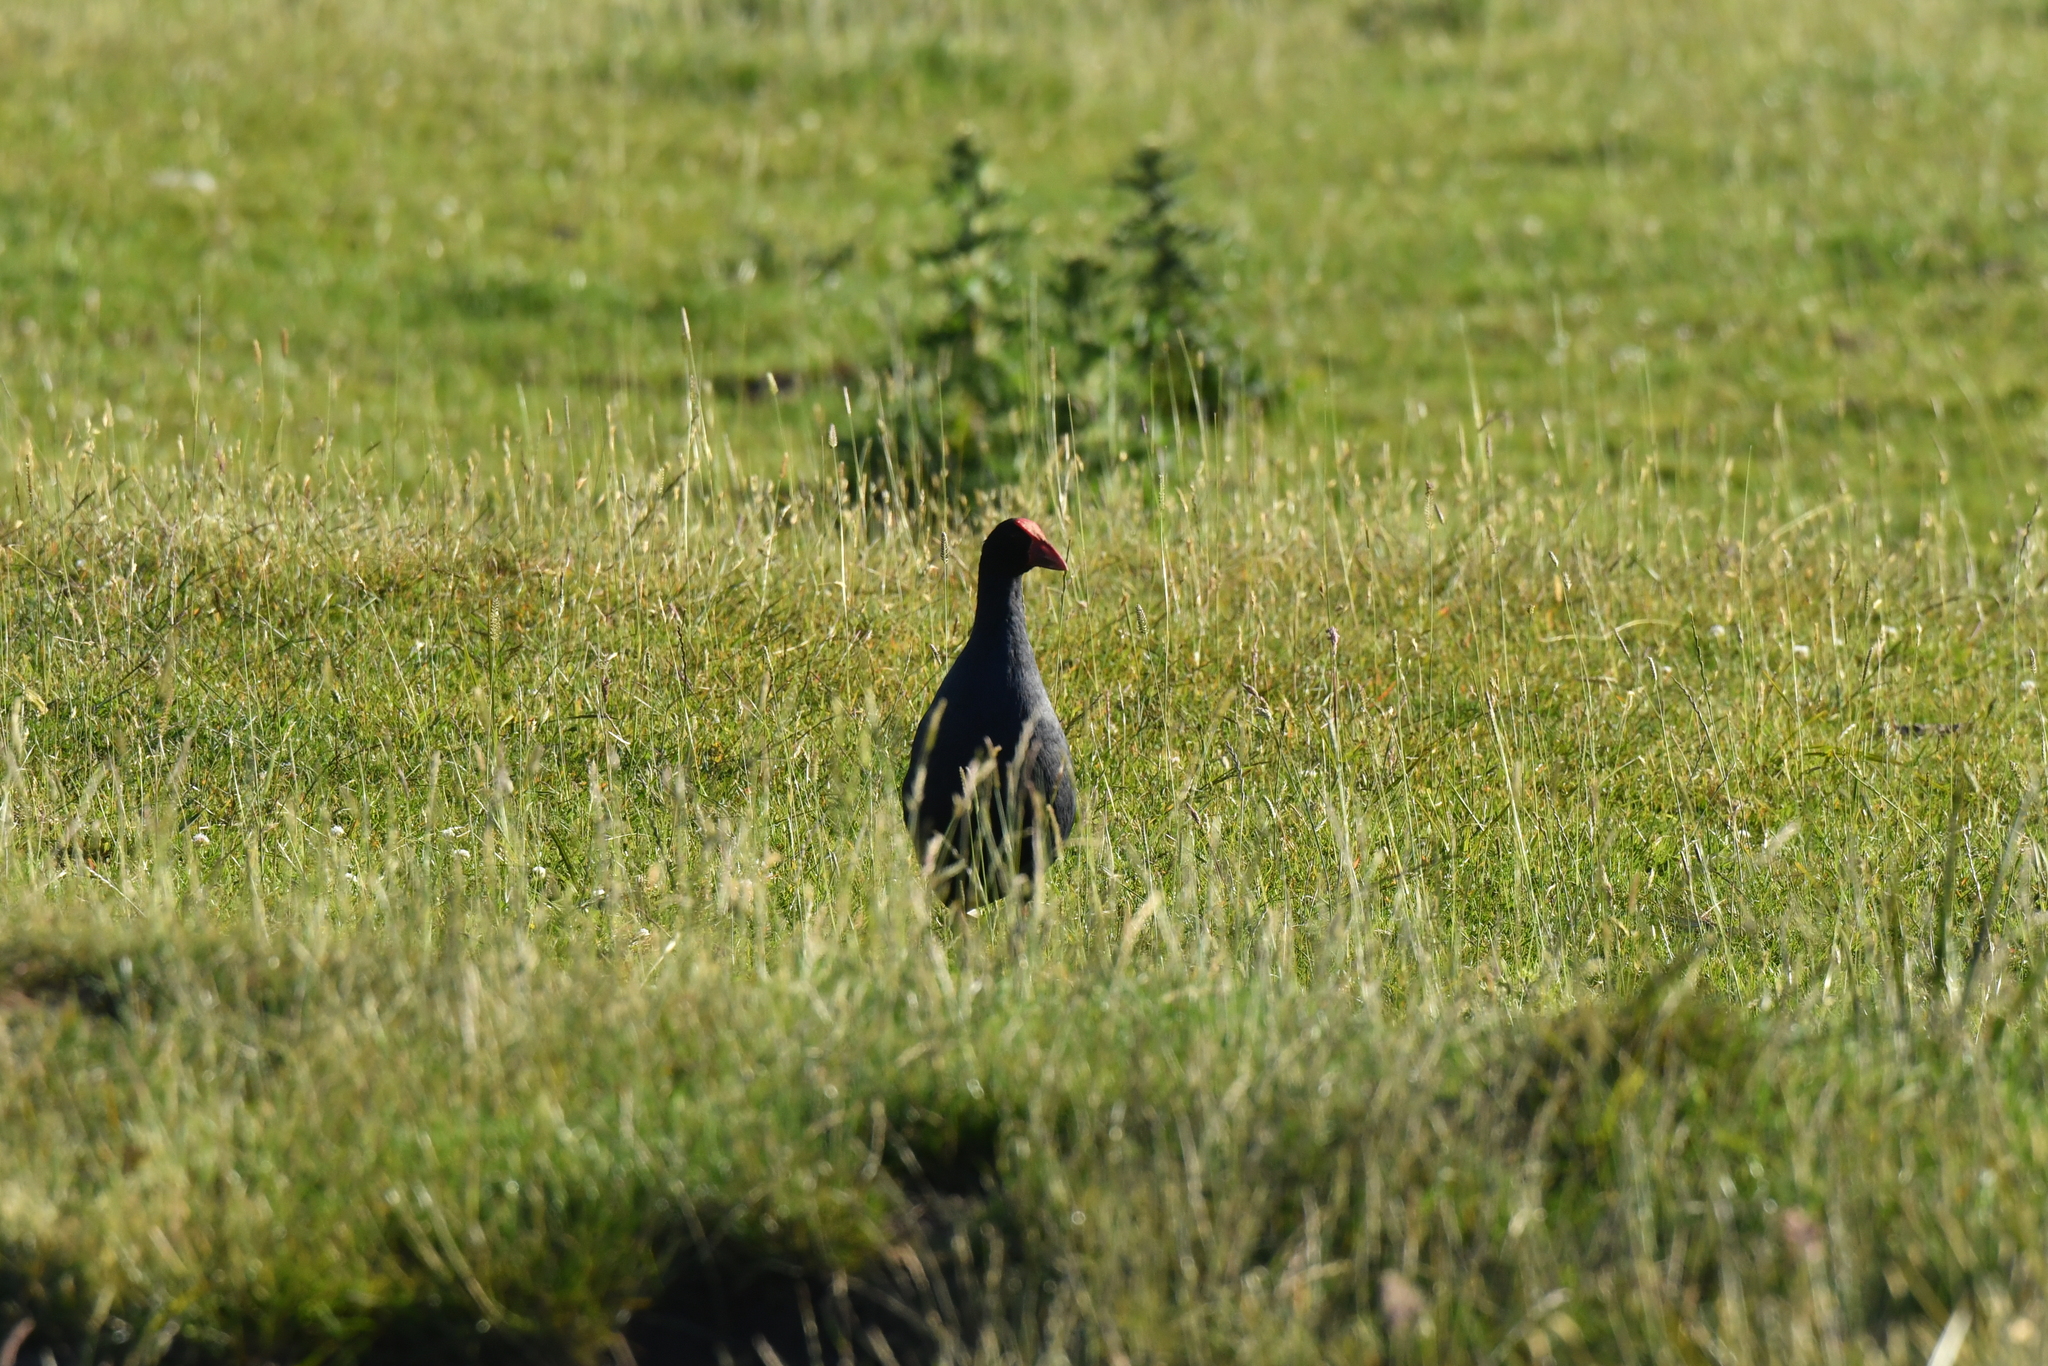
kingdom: Animalia
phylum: Chordata
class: Aves
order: Gruiformes
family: Rallidae
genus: Porphyrio
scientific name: Porphyrio melanotus
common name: Australasian swamphen
